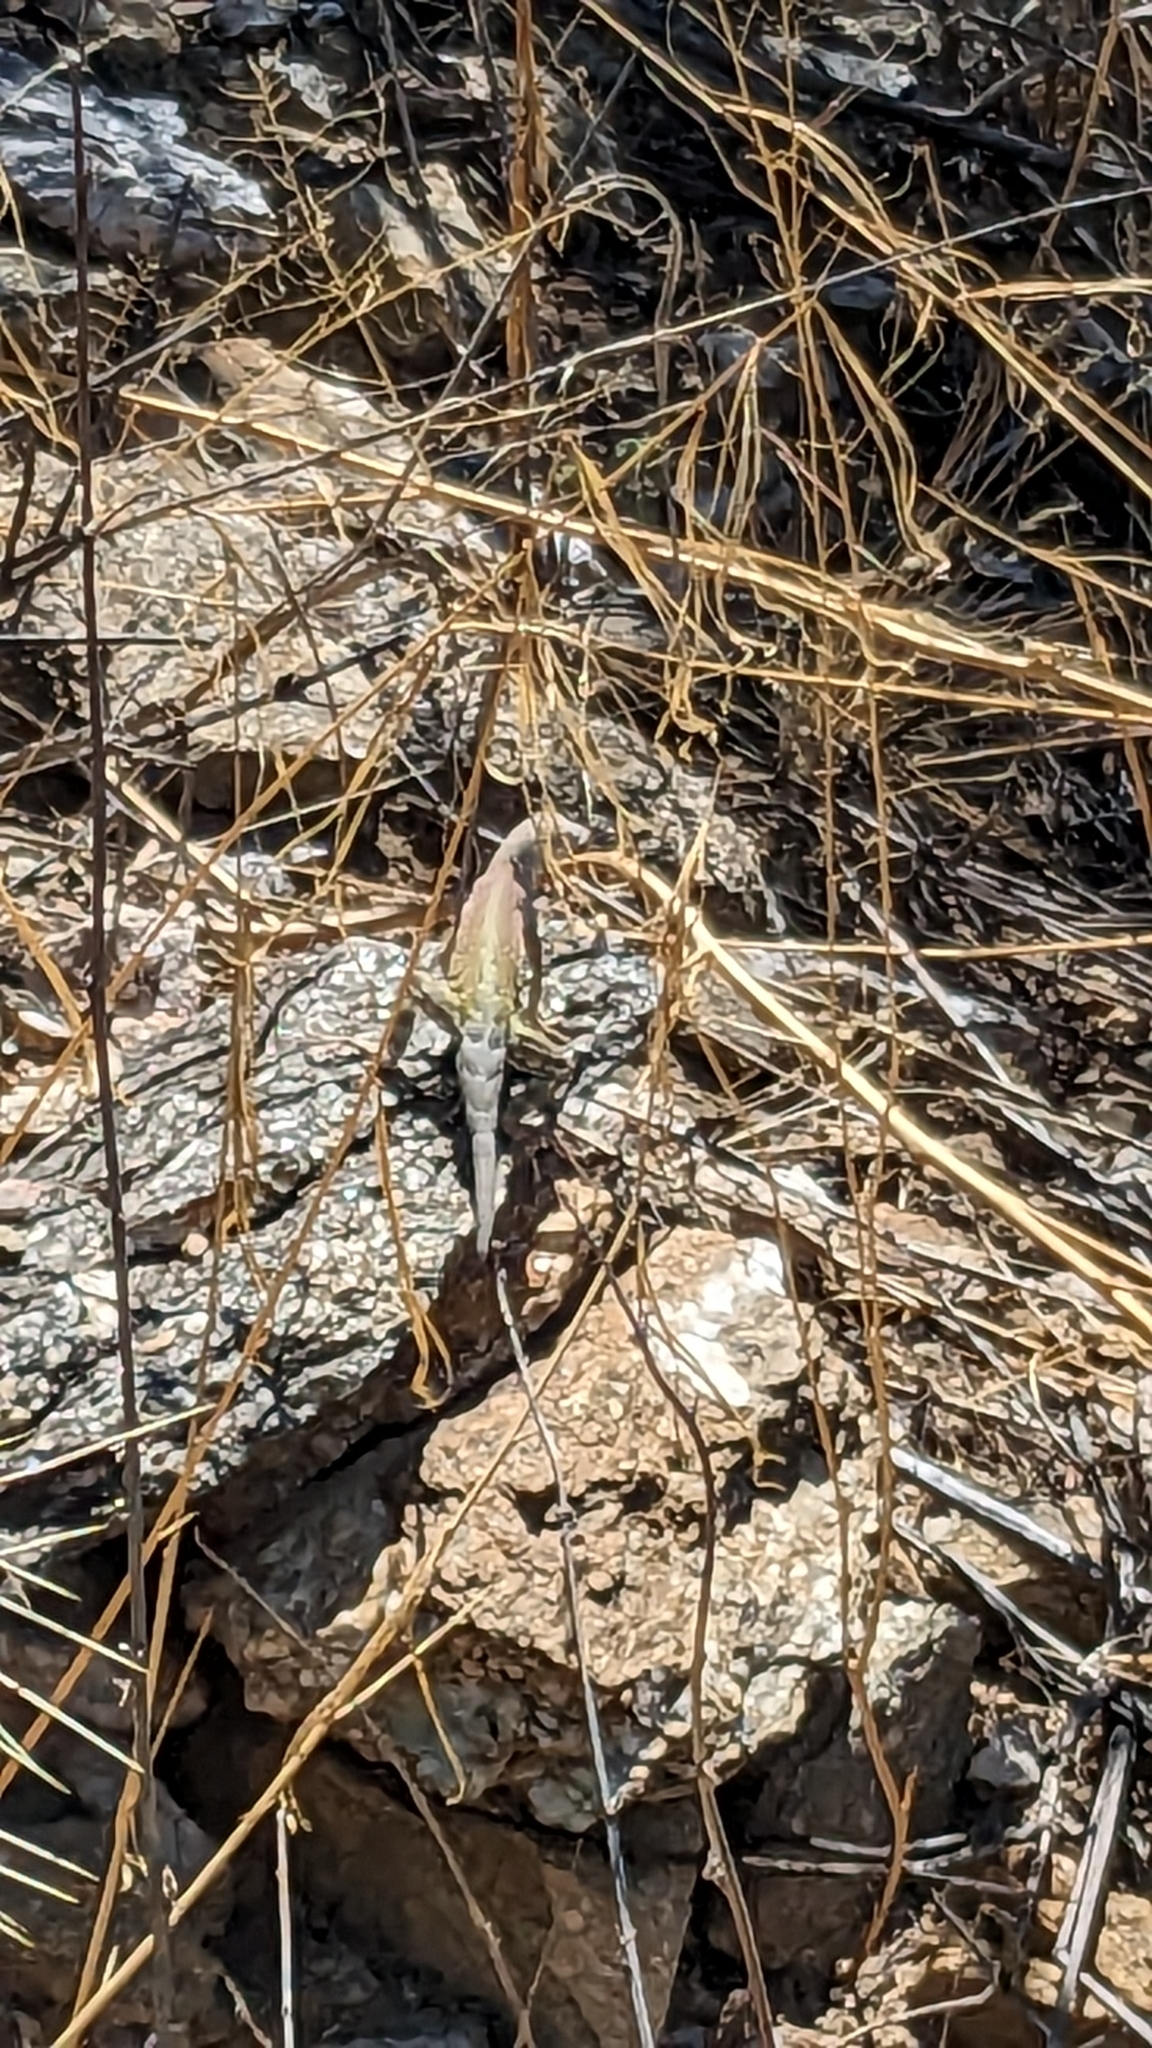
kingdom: Animalia
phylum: Chordata
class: Squamata
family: Phrynosomatidae
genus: Cophosaurus
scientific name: Cophosaurus texanus
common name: Greater earless lizard
